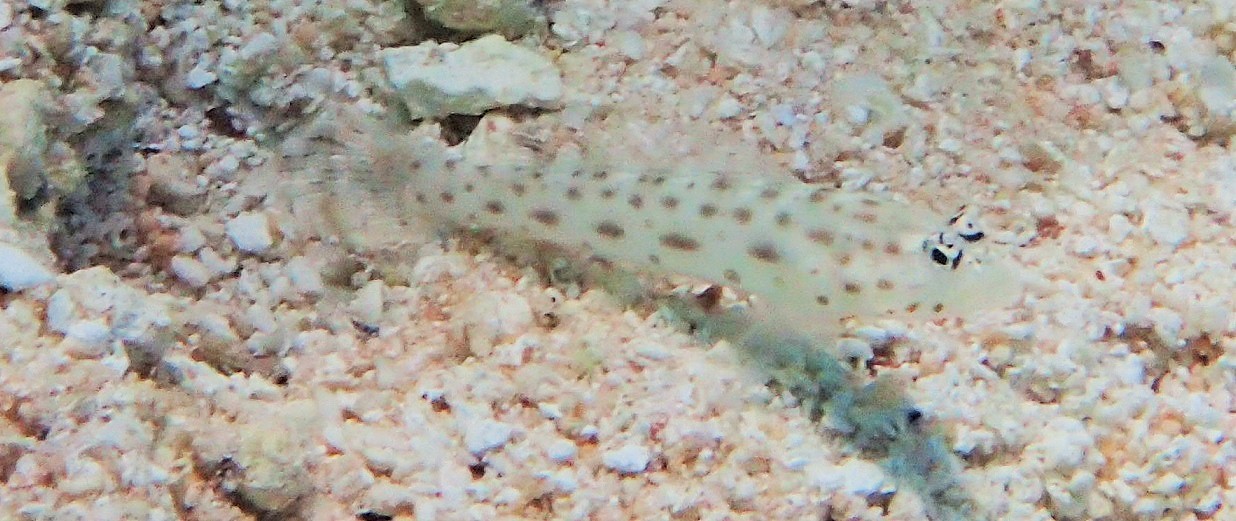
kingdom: Animalia
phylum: Chordata
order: Perciformes
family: Gobiidae
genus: Ctenogobiops
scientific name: Ctenogobiops pomastictus
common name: Spotfin shrimp goby
